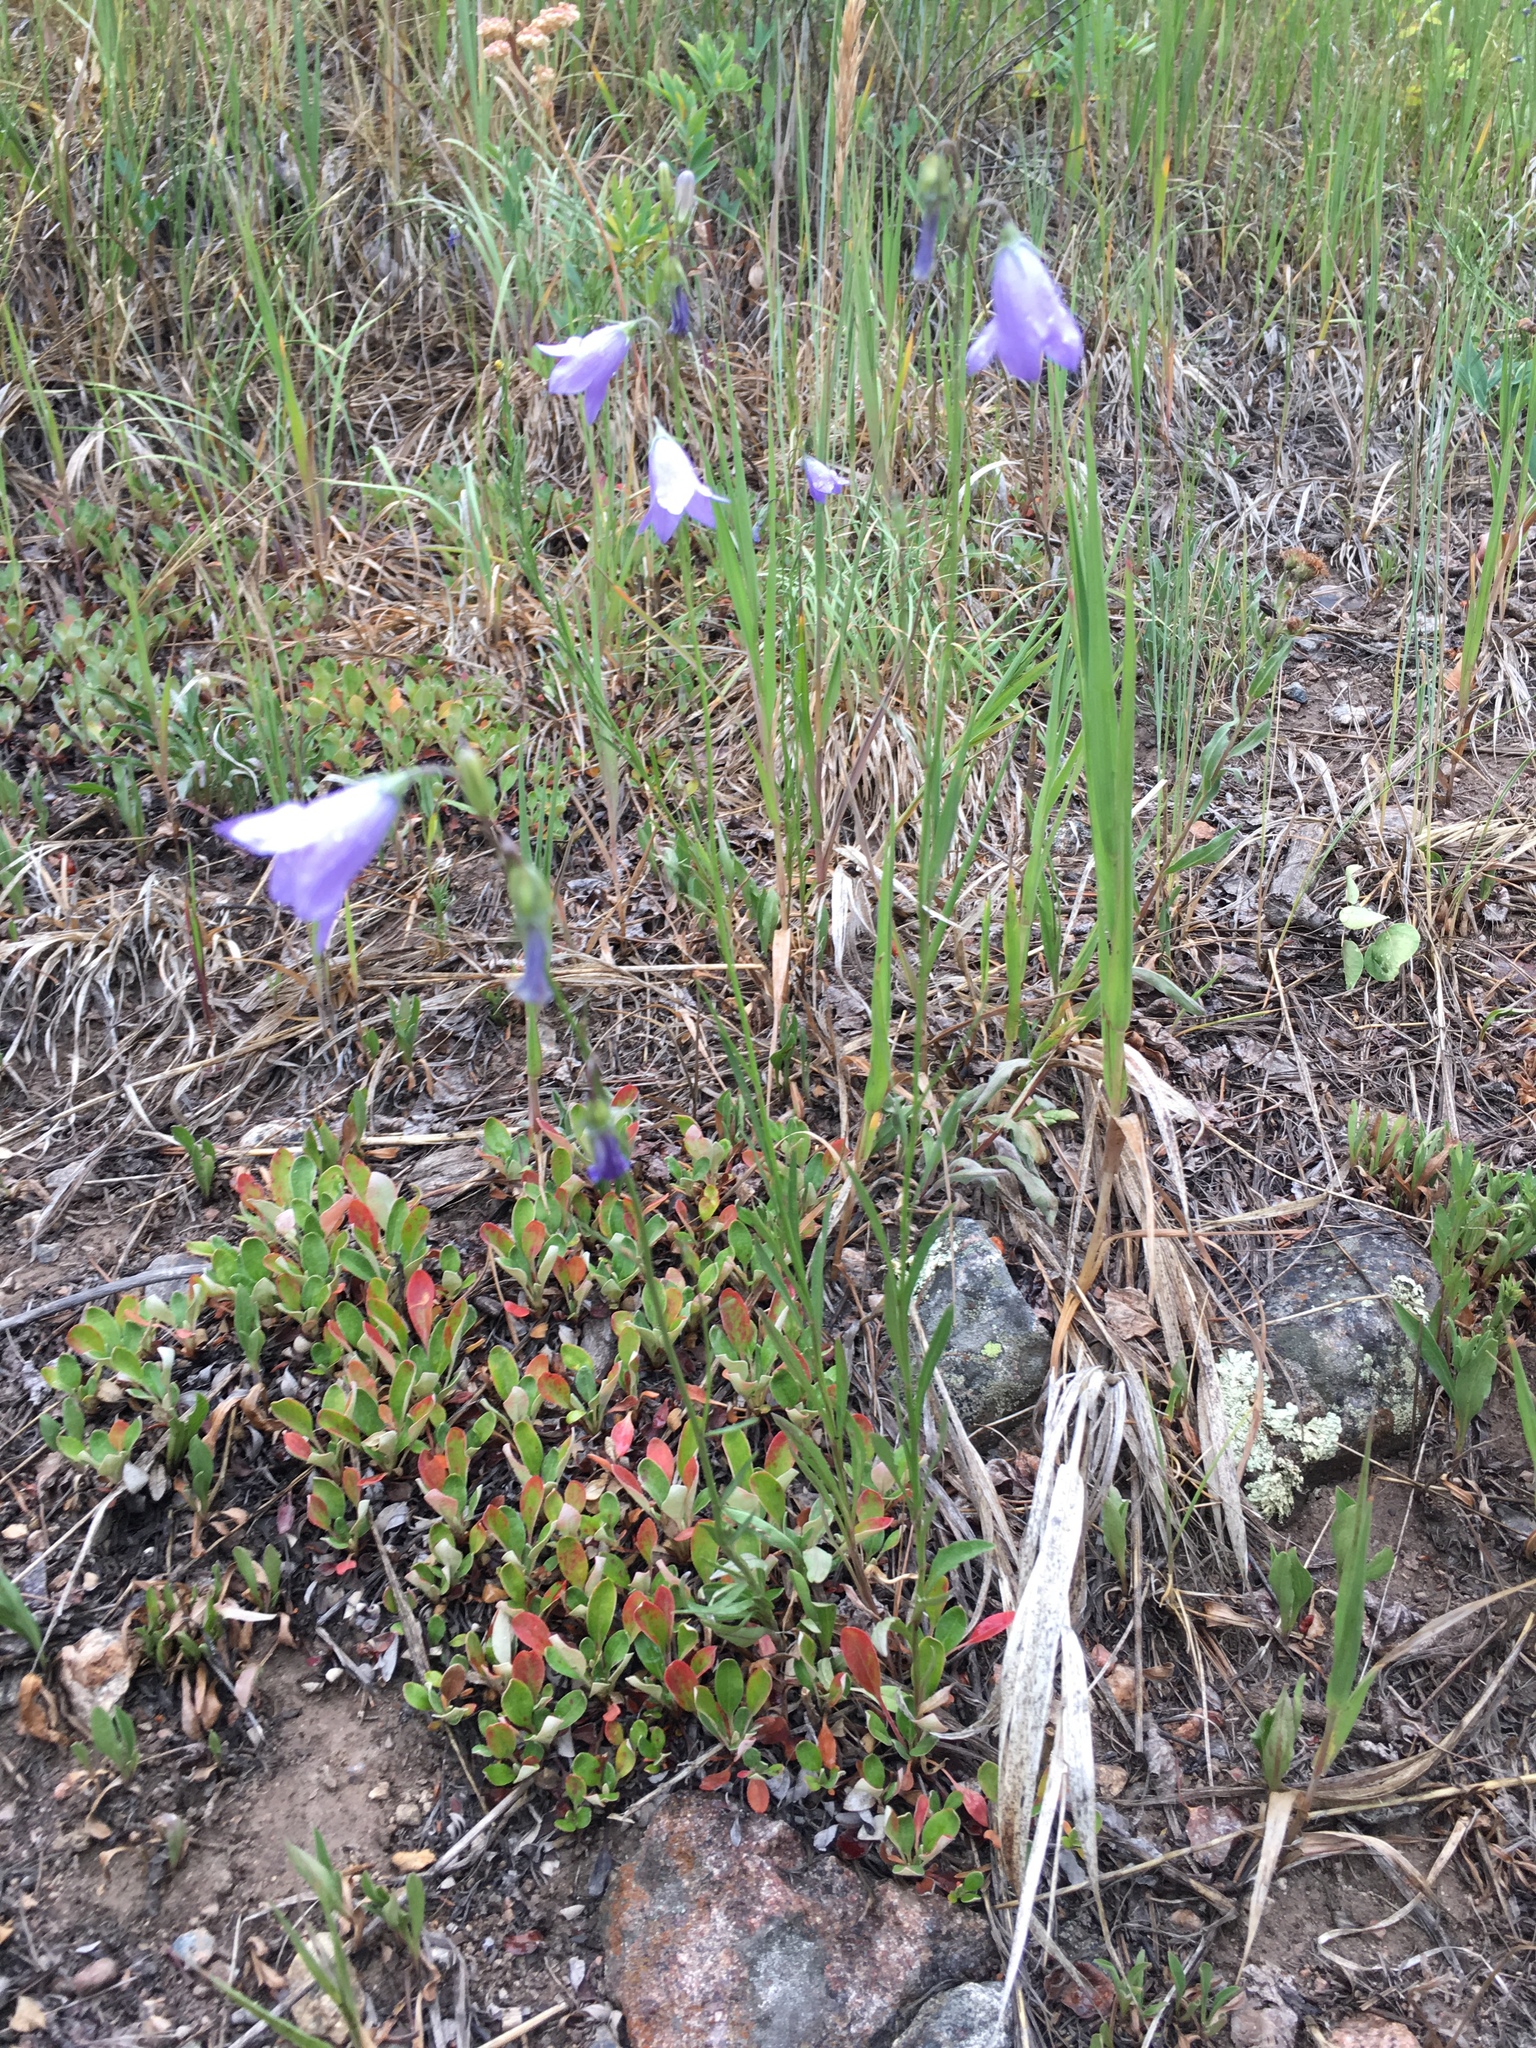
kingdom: Plantae
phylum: Tracheophyta
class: Magnoliopsida
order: Asterales
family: Campanulaceae
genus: Campanula
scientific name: Campanula petiolata
